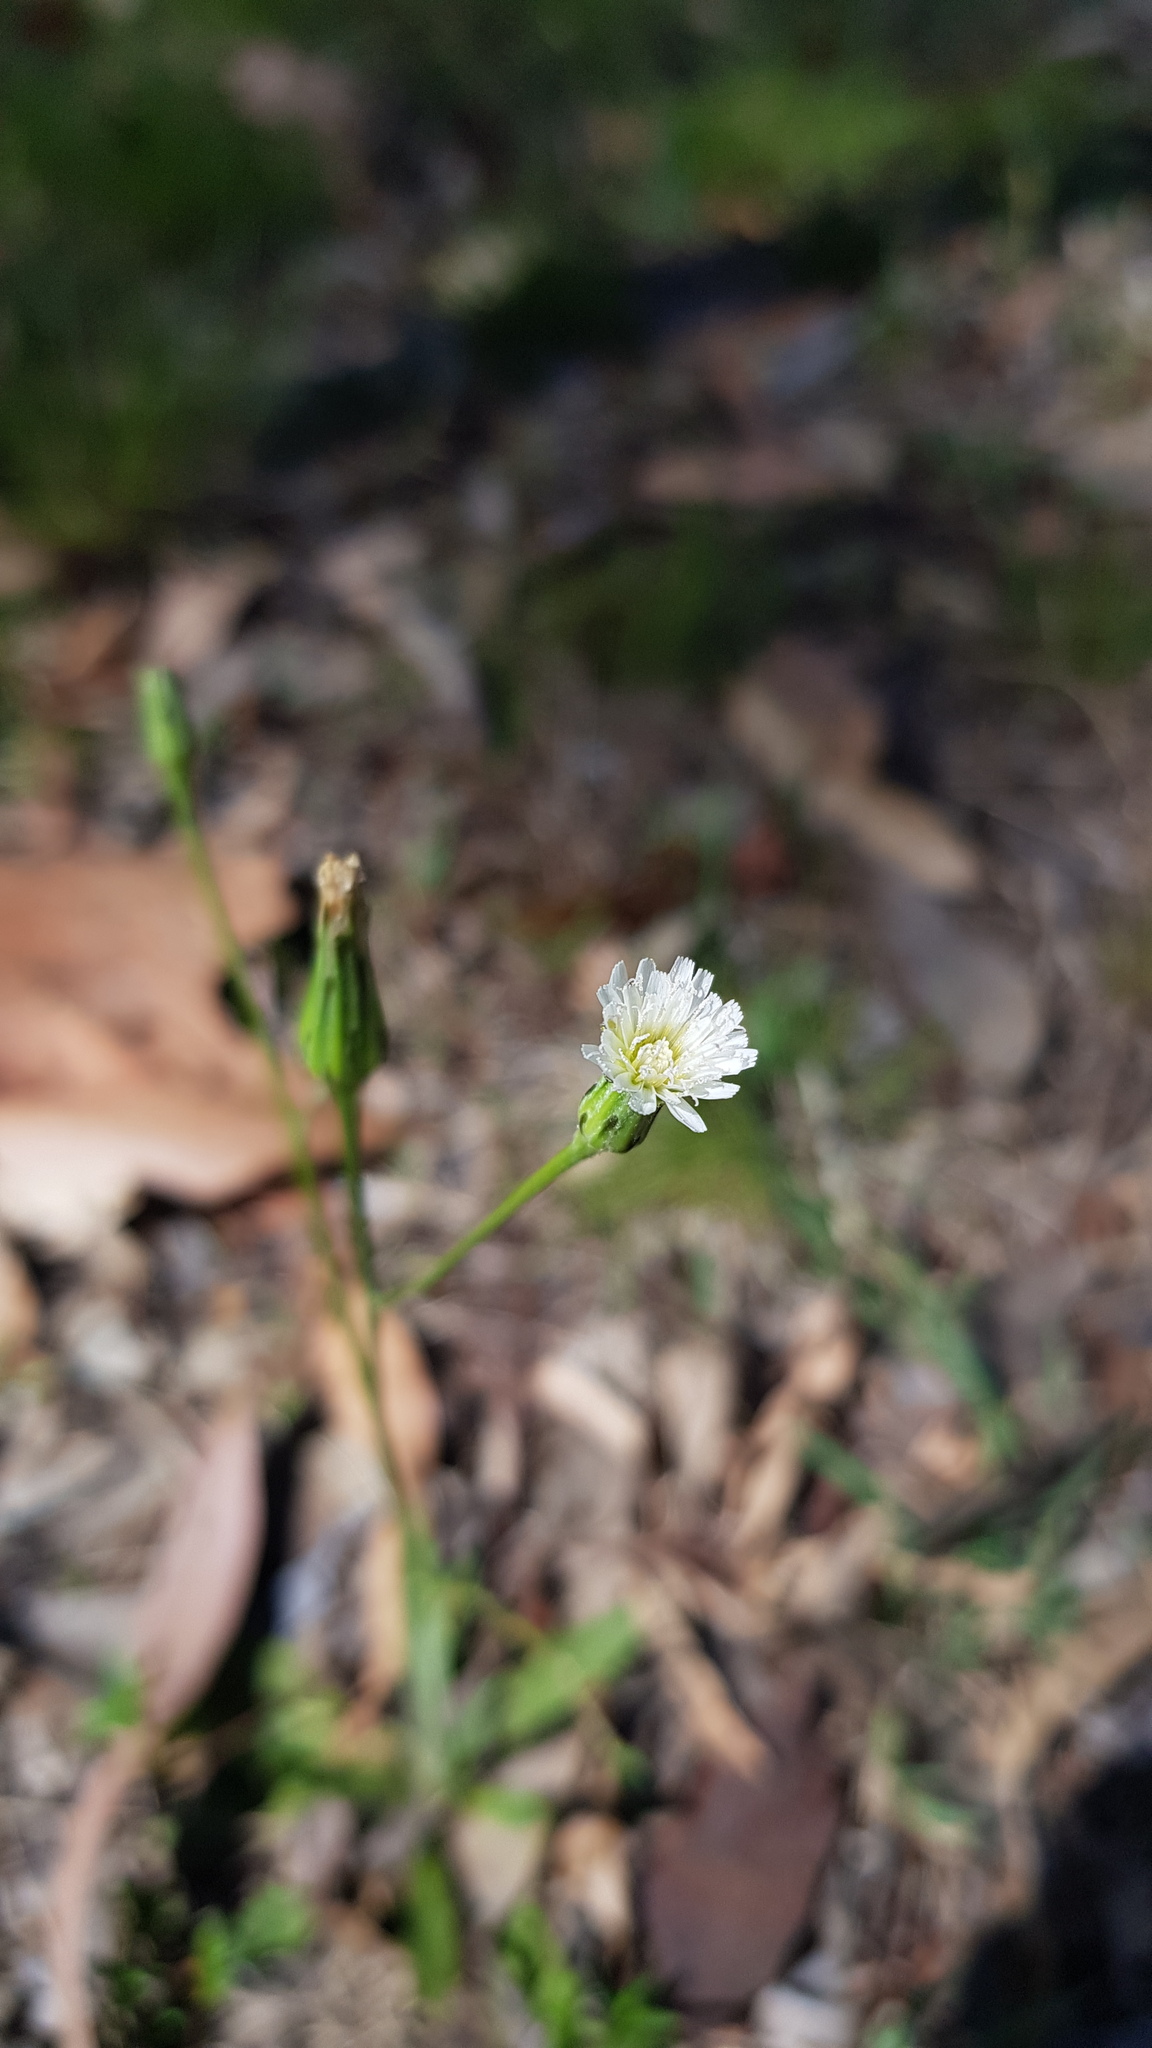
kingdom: Plantae
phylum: Tracheophyta
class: Magnoliopsida
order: Asterales
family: Asteraceae
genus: Hypochaeris
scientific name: Hypochaeris albiflora
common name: White flatweed
